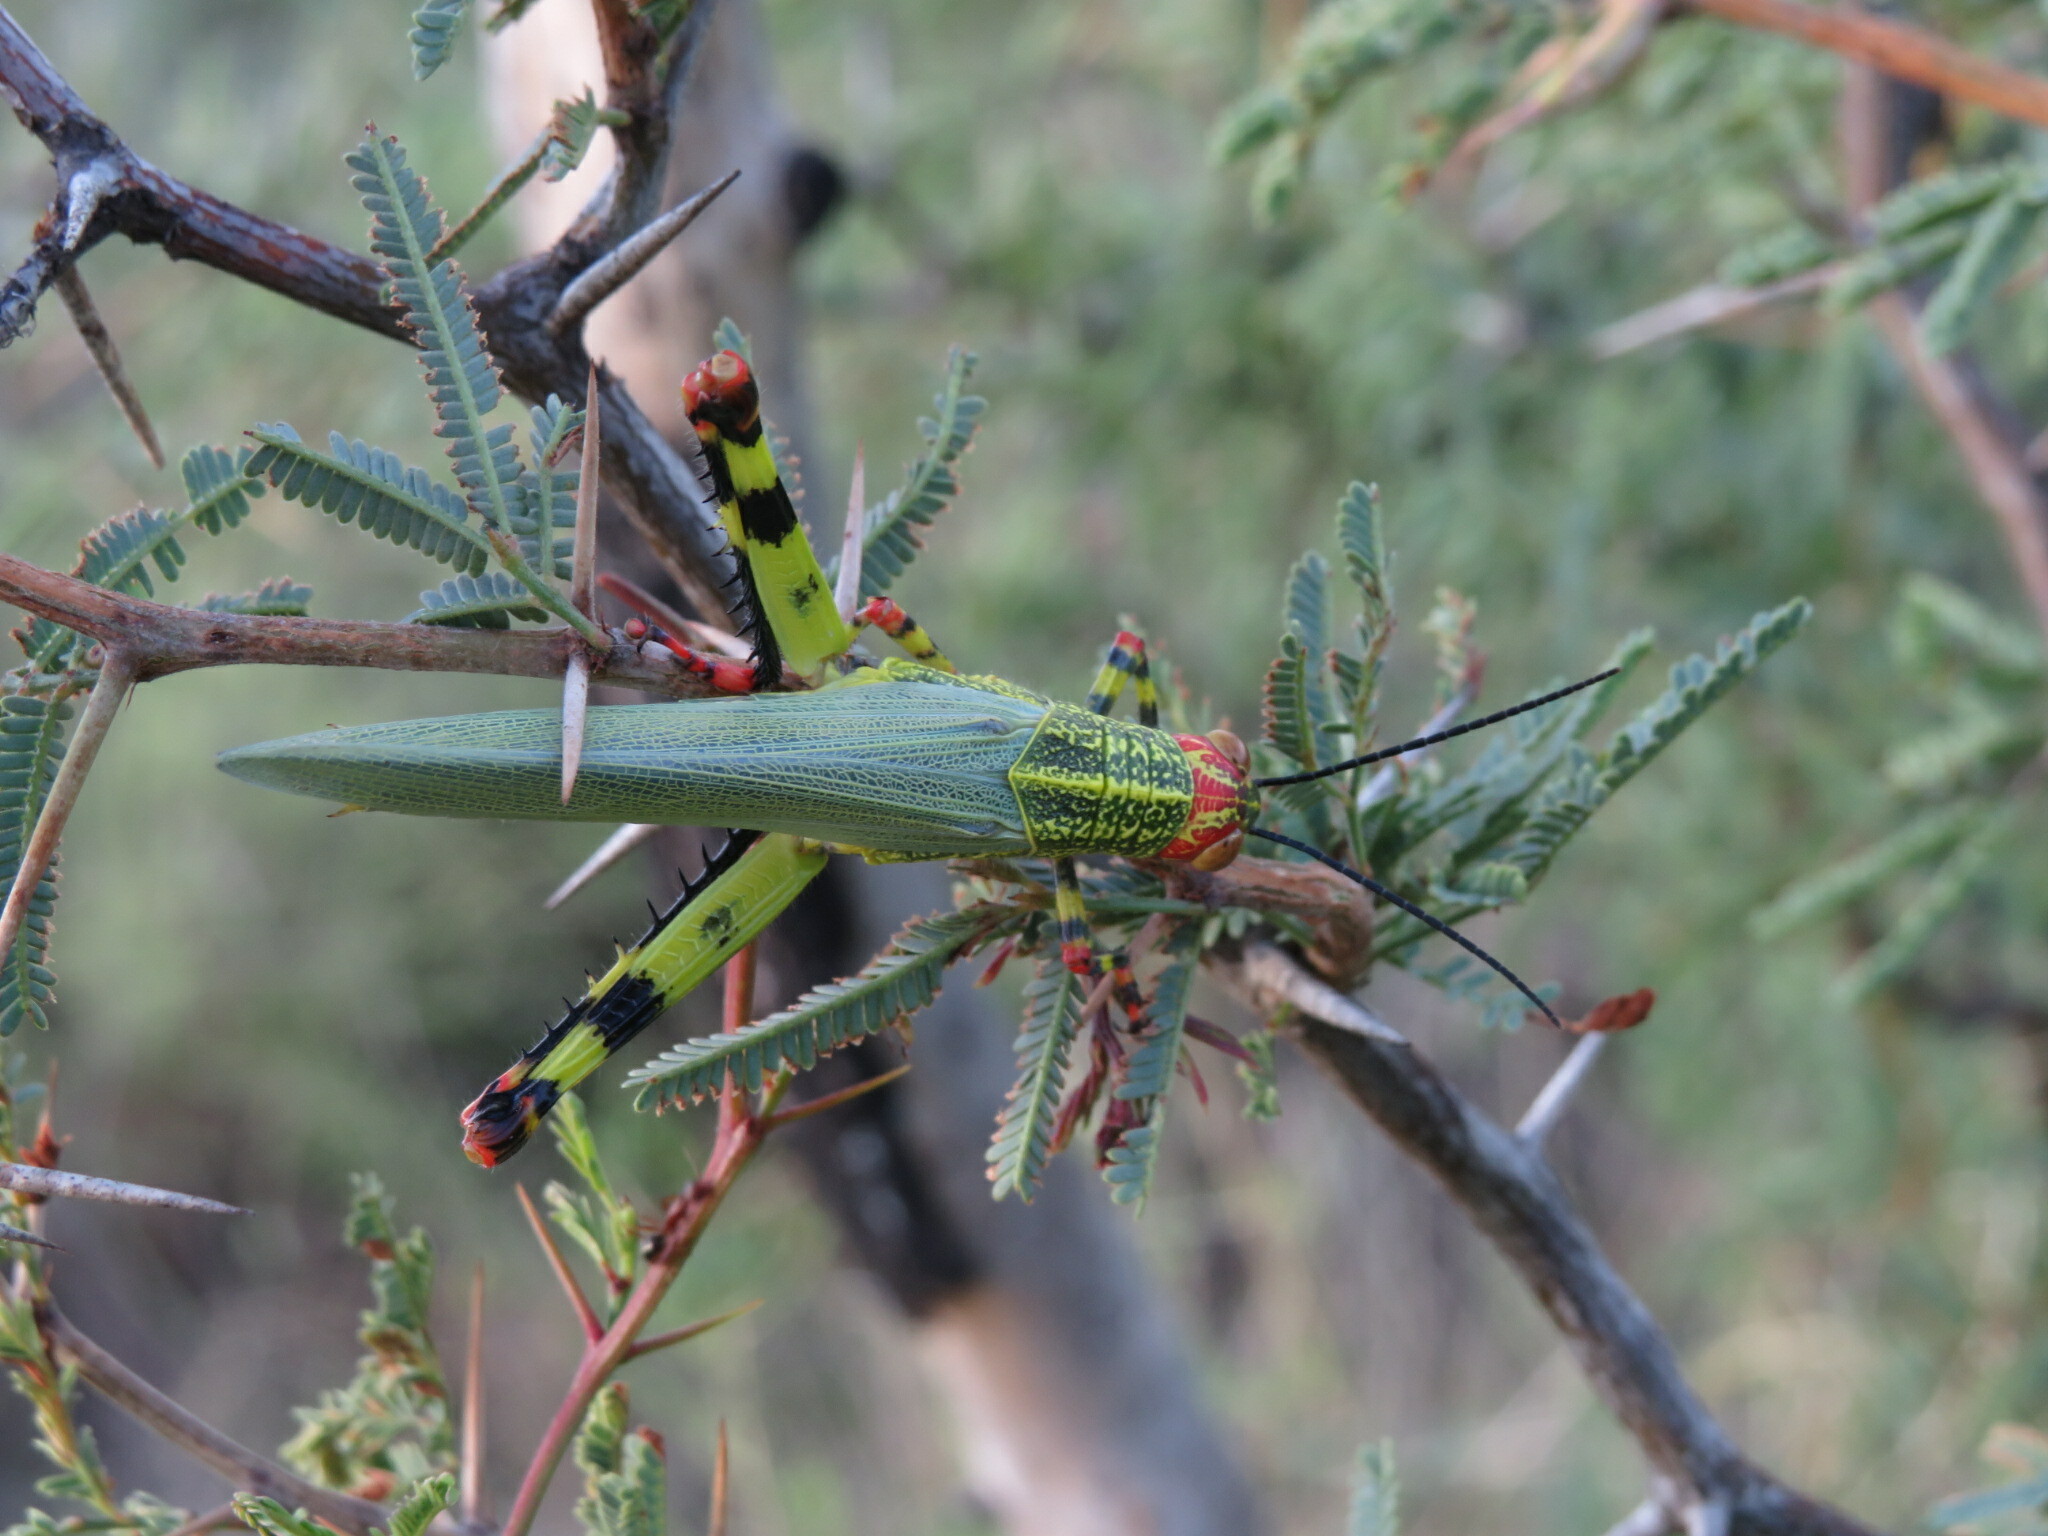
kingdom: Animalia
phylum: Arthropoda
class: Insecta
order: Orthoptera
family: Romaleidae
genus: Zoniopoda
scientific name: Zoniopoda tarsata
